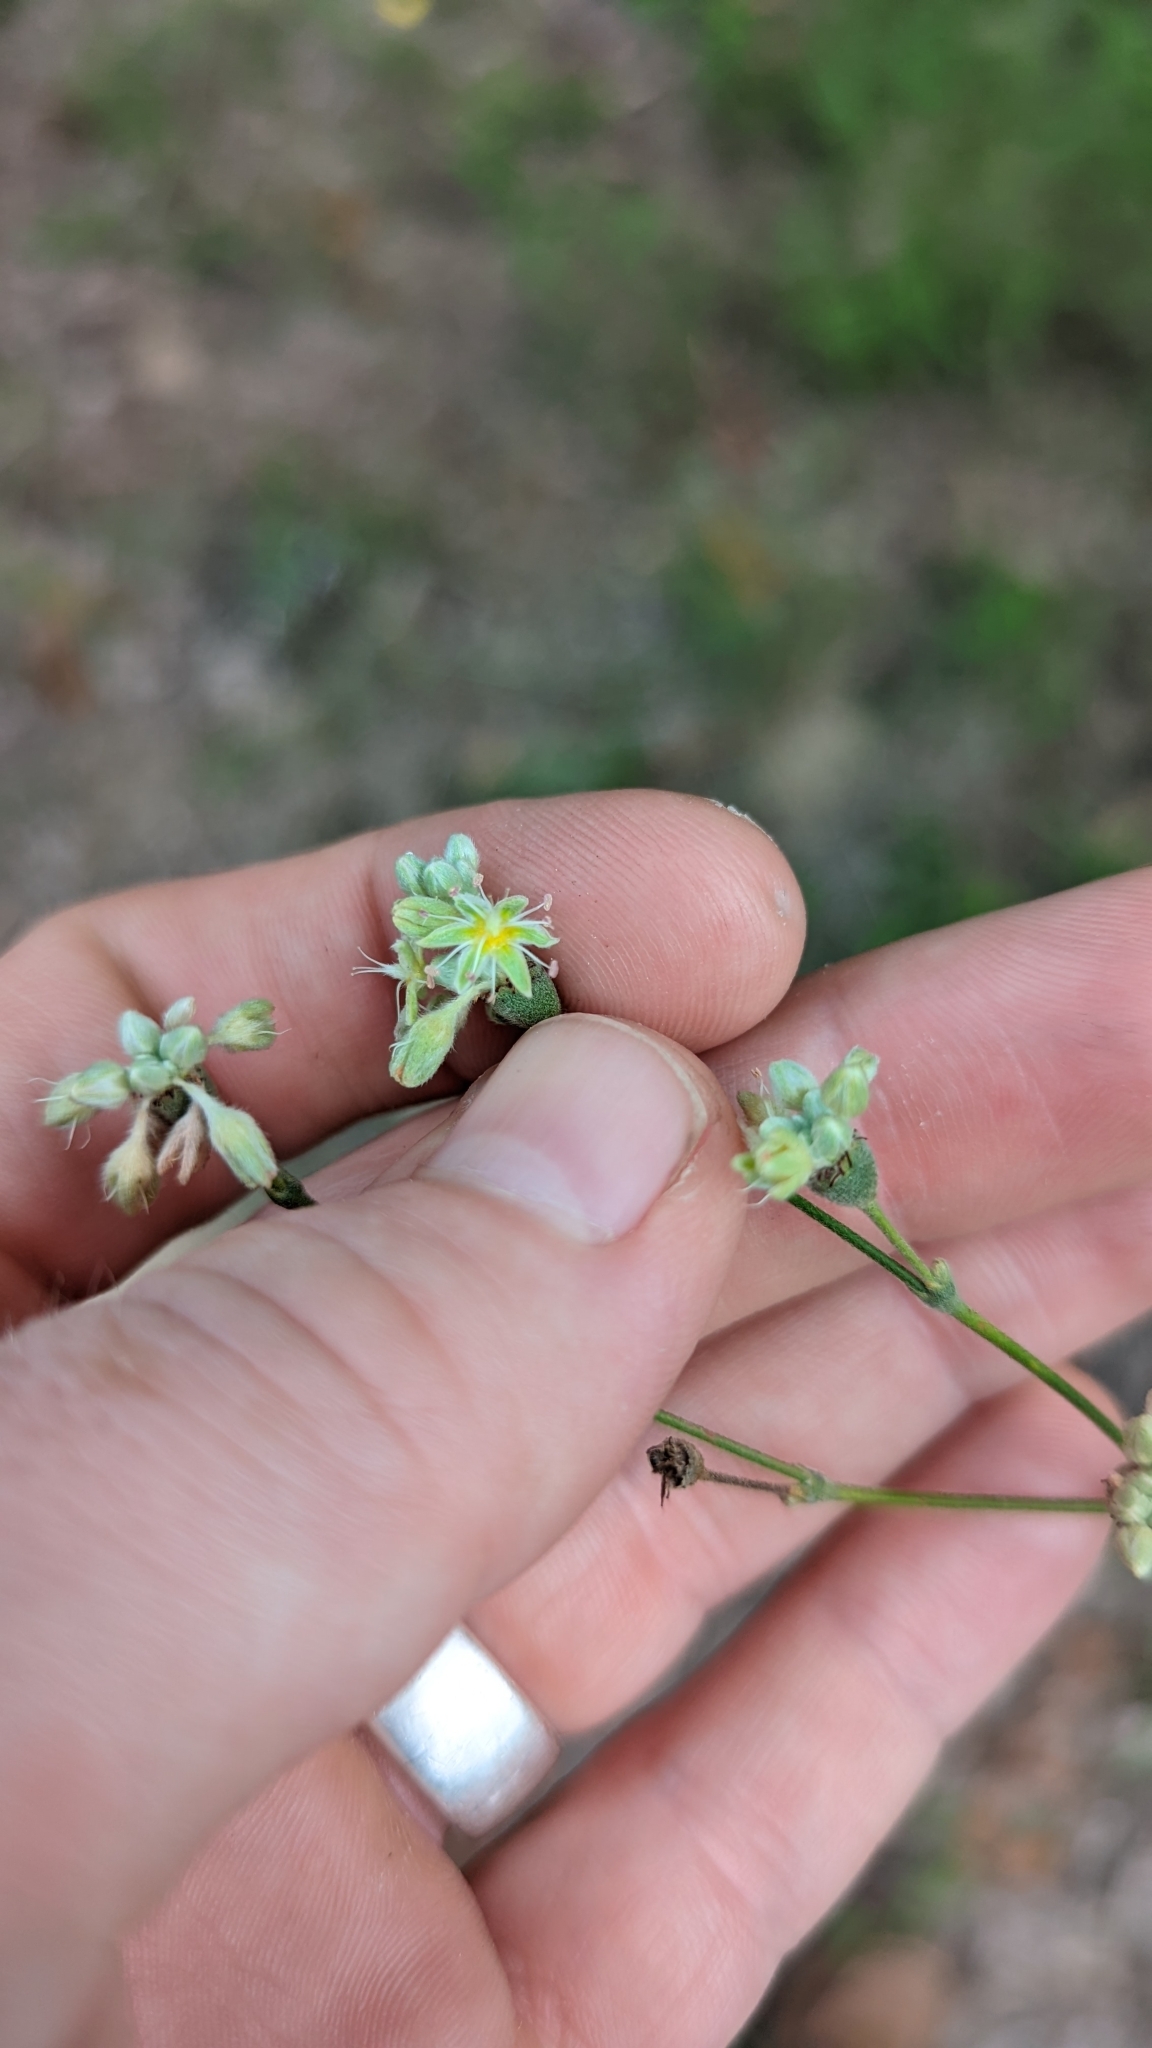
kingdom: Plantae
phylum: Tracheophyta
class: Magnoliopsida
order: Caryophyllales
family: Polygonaceae
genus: Eriogonum
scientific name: Eriogonum longifolium
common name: Longleaf wild buckwheat
